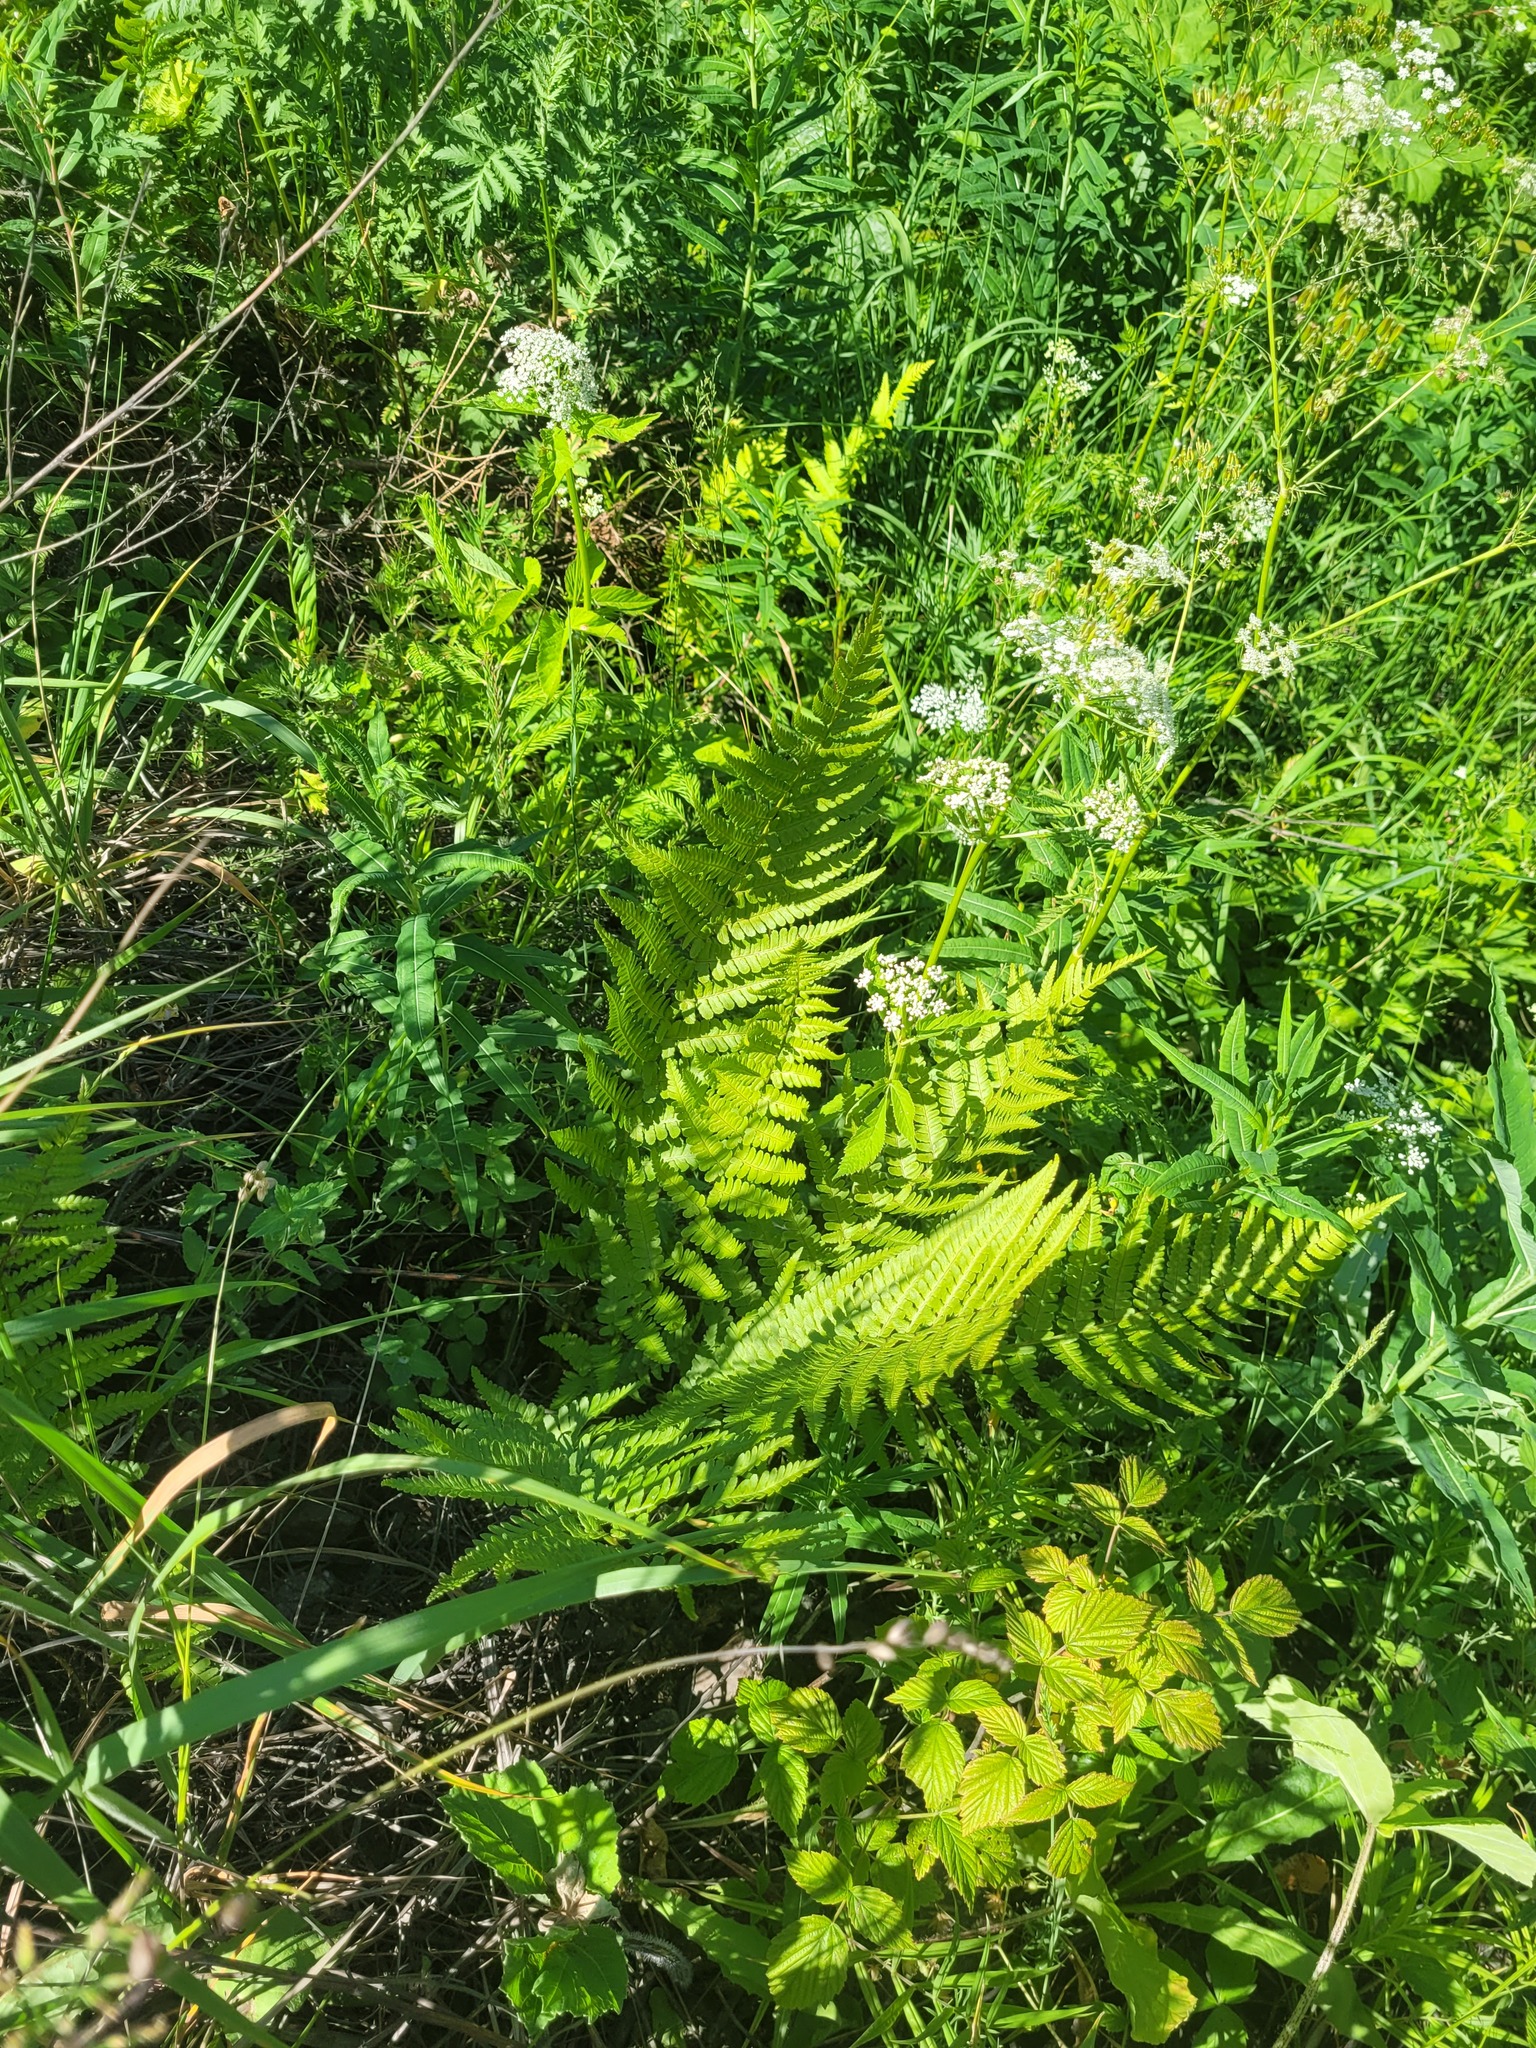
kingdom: Plantae
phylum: Tracheophyta
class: Polypodiopsida
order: Polypodiales
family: Dryopteridaceae
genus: Dryopteris
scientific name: Dryopteris filix-mas
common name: Male fern
